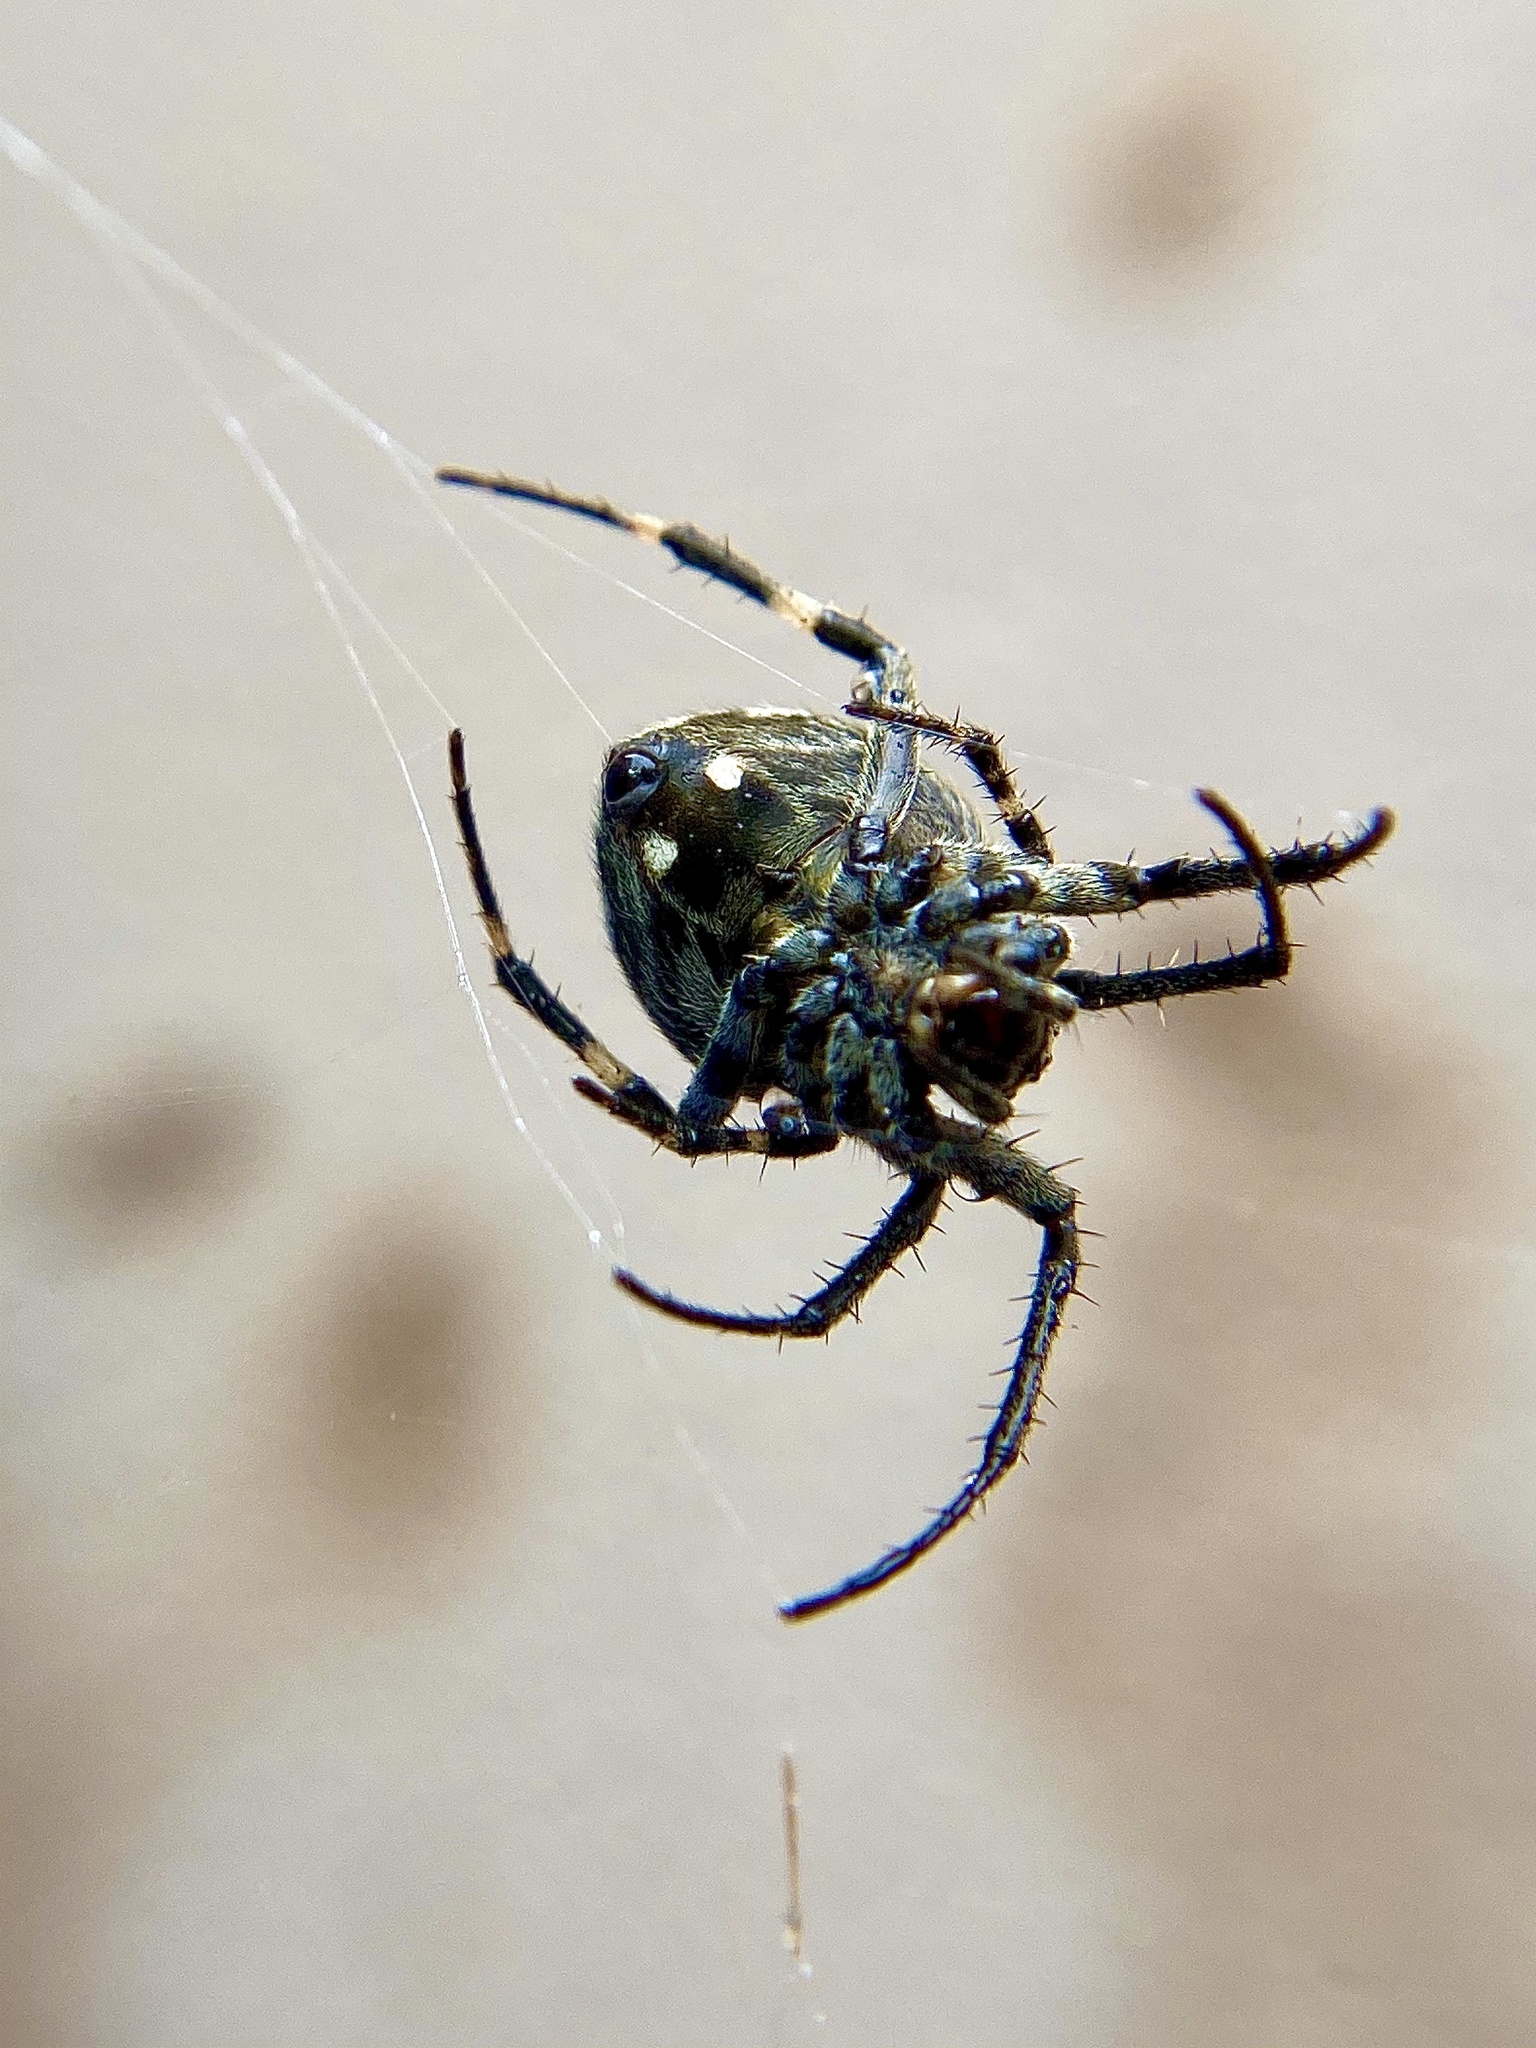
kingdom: Animalia
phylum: Arthropoda
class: Arachnida
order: Araneae
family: Araneidae
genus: Neoscona
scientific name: Neoscona nautica
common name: Orb weavers
